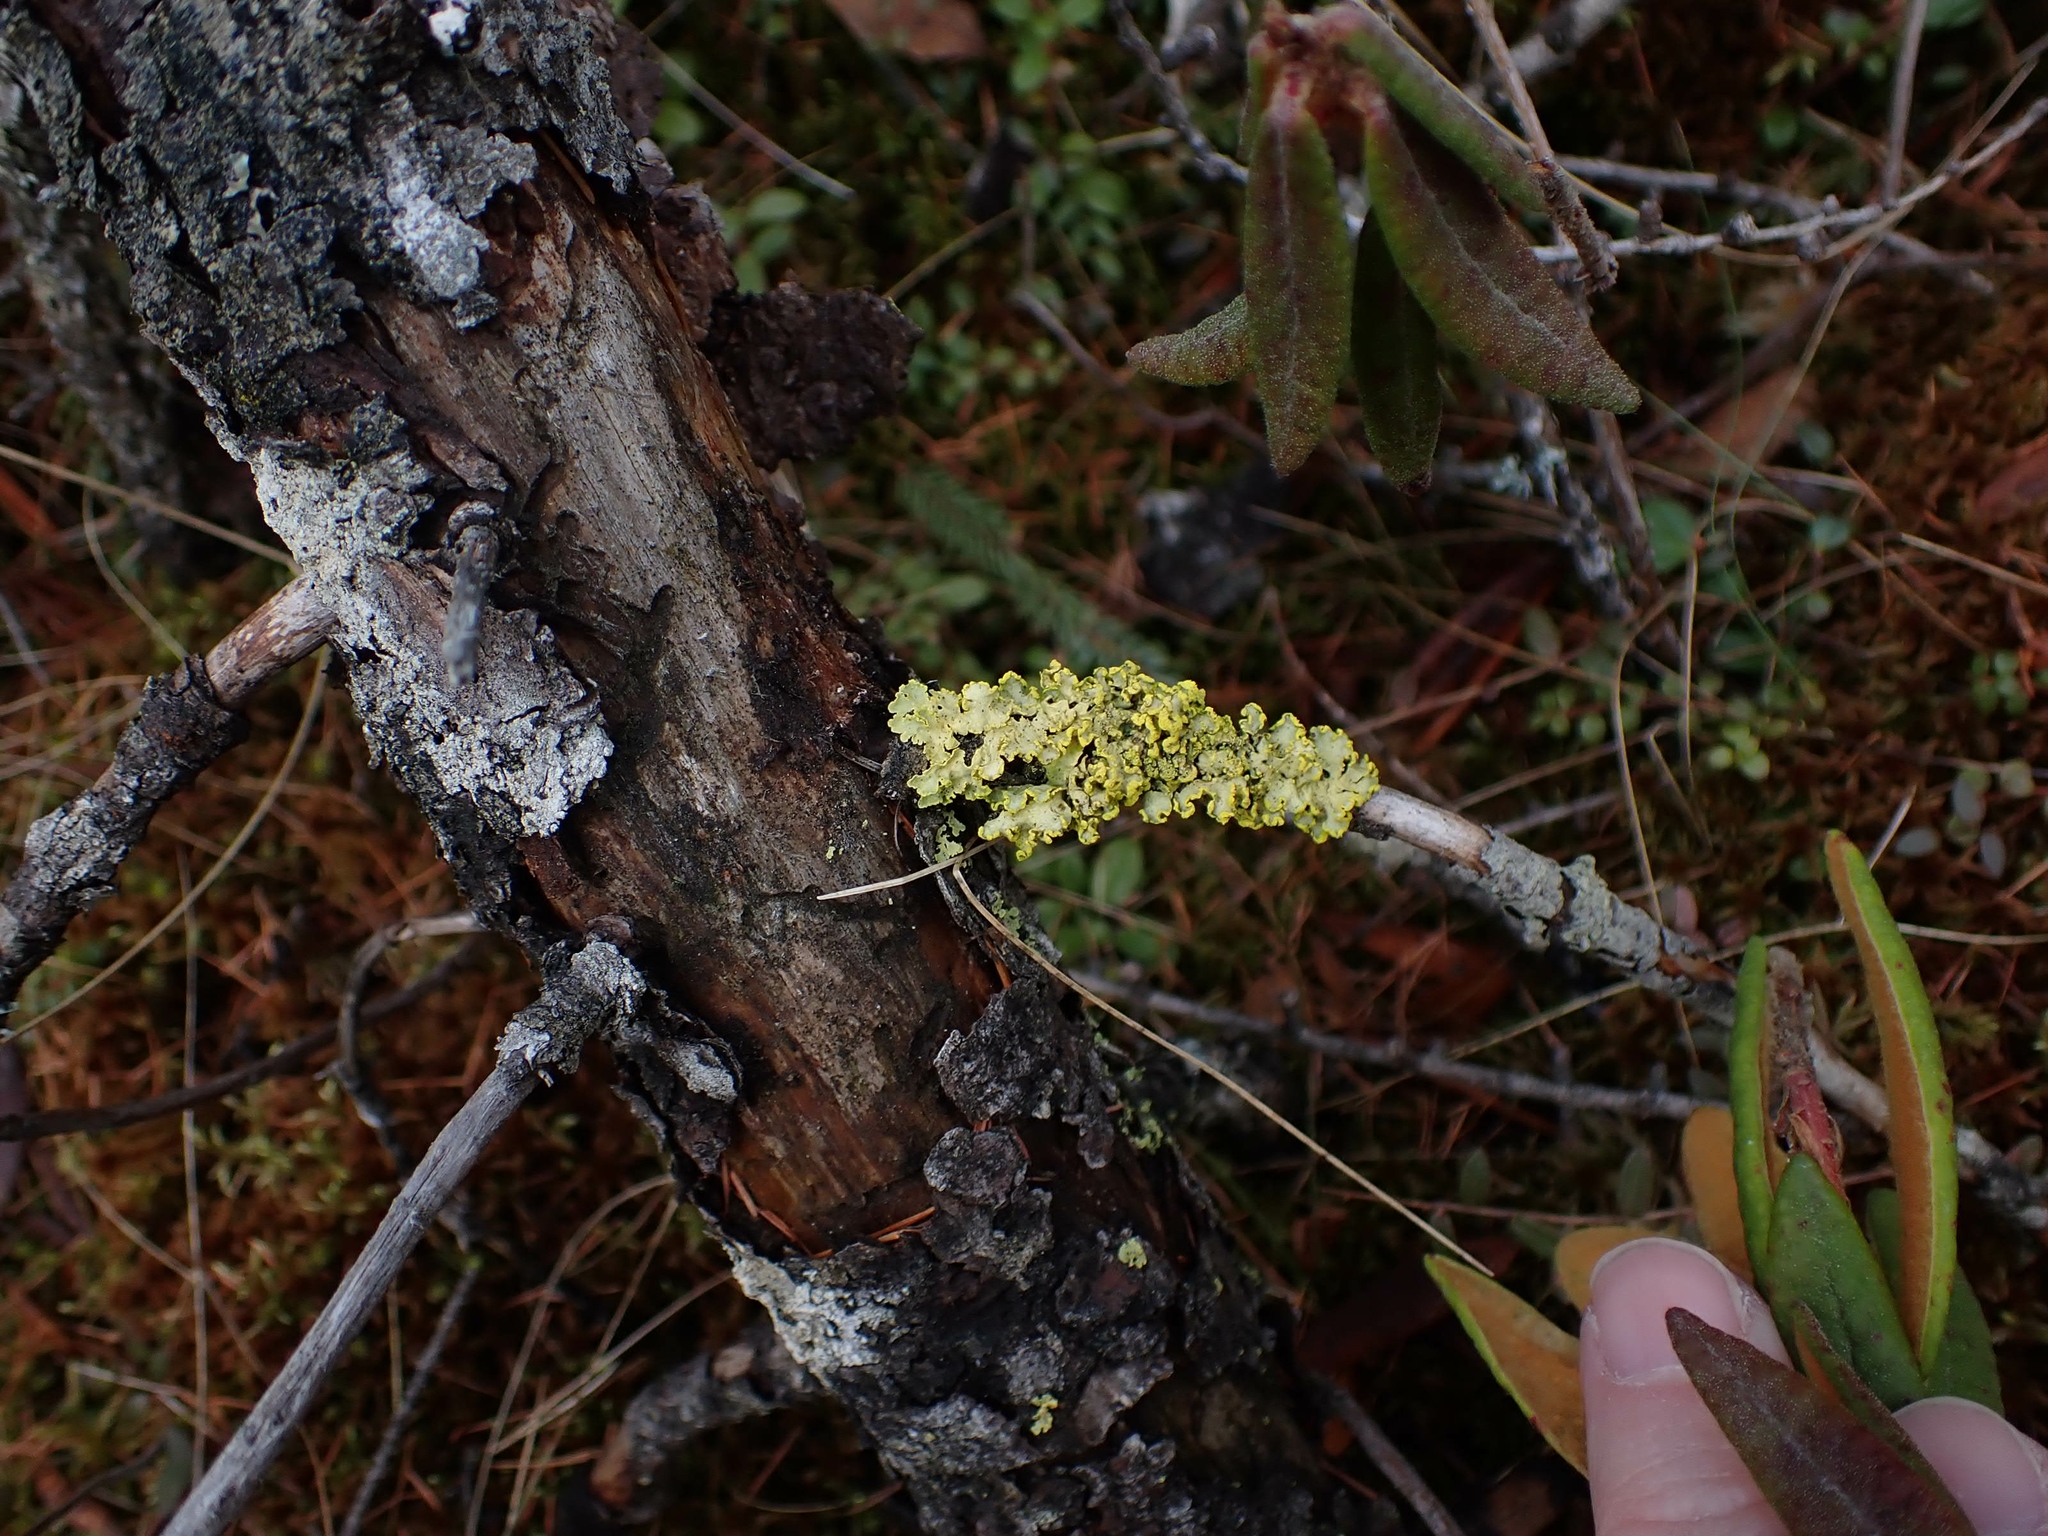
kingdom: Fungi
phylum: Ascomycota
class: Lecanoromycetes
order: Lecanorales
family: Parmeliaceae
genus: Vulpicida
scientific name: Vulpicida pinastri
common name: Powdered sunshine lichen
